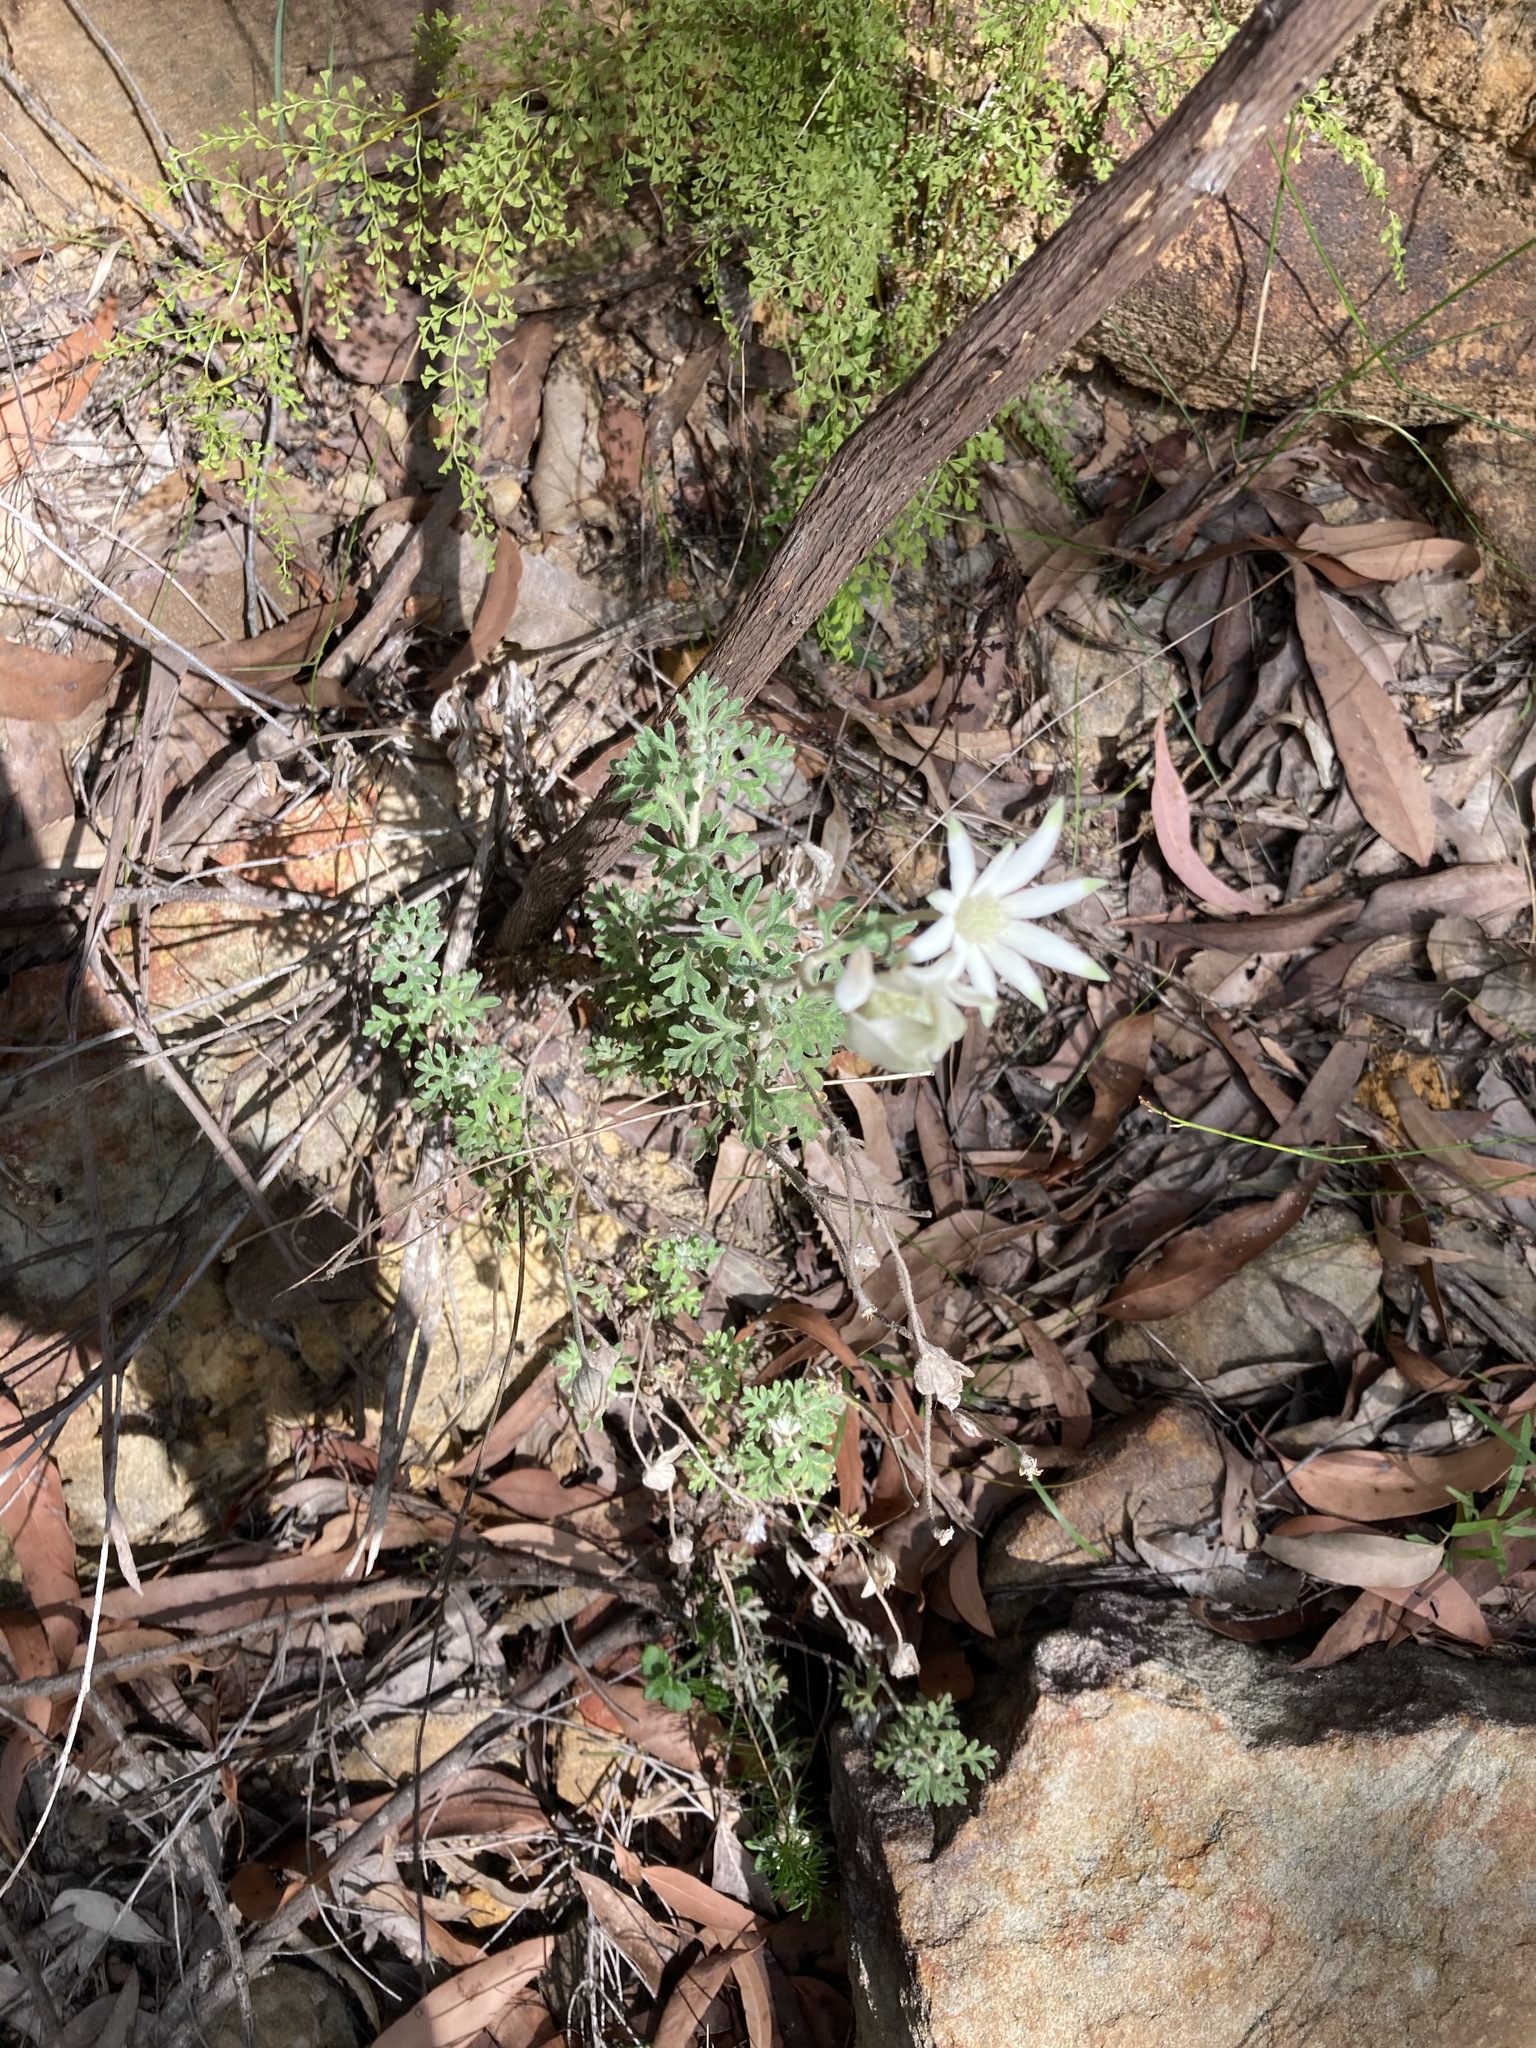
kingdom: Plantae
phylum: Tracheophyta
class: Magnoliopsida
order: Apiales
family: Apiaceae
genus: Actinotus
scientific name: Actinotus helianthi
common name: Flannel-flower
